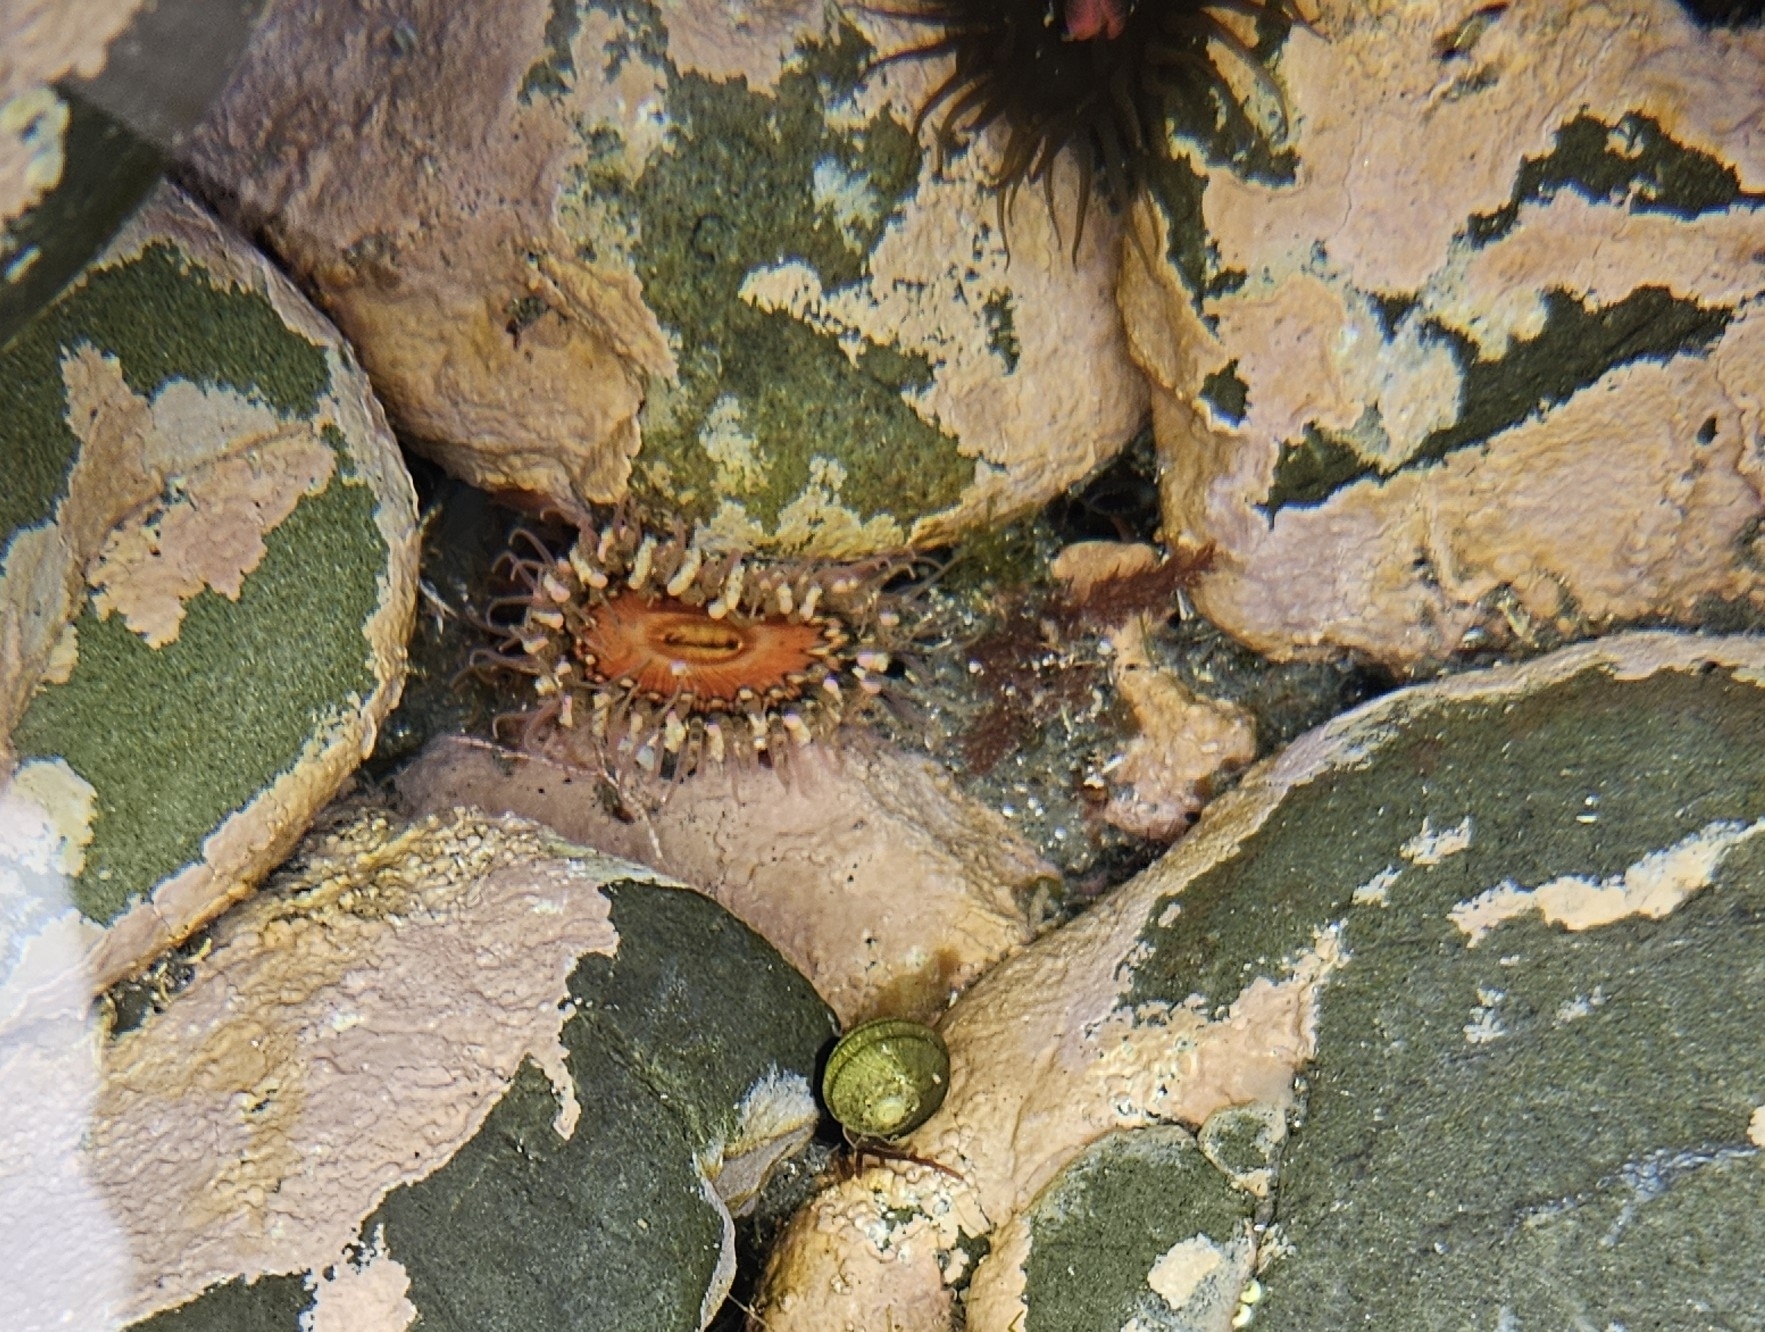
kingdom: Animalia
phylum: Cnidaria
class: Anthozoa
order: Actiniaria
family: Actiniidae
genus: Oulactis
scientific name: Oulactis muscosa
